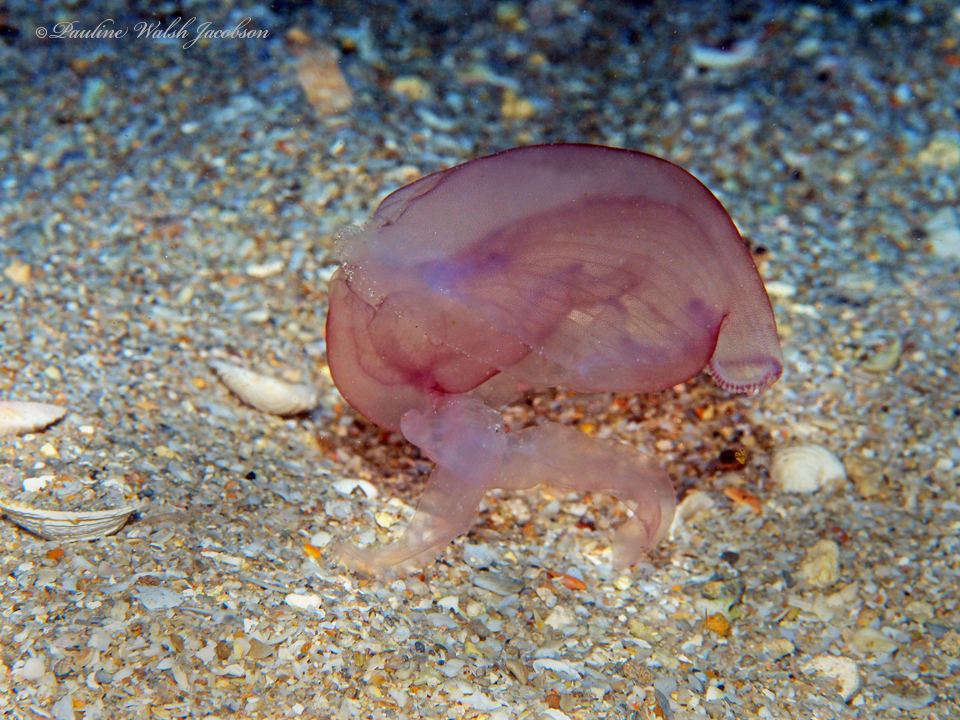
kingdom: Animalia
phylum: Cnidaria
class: Scyphozoa
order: Semaeostomeae
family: Ulmaridae
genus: Aurelia
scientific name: Aurelia marginalis
